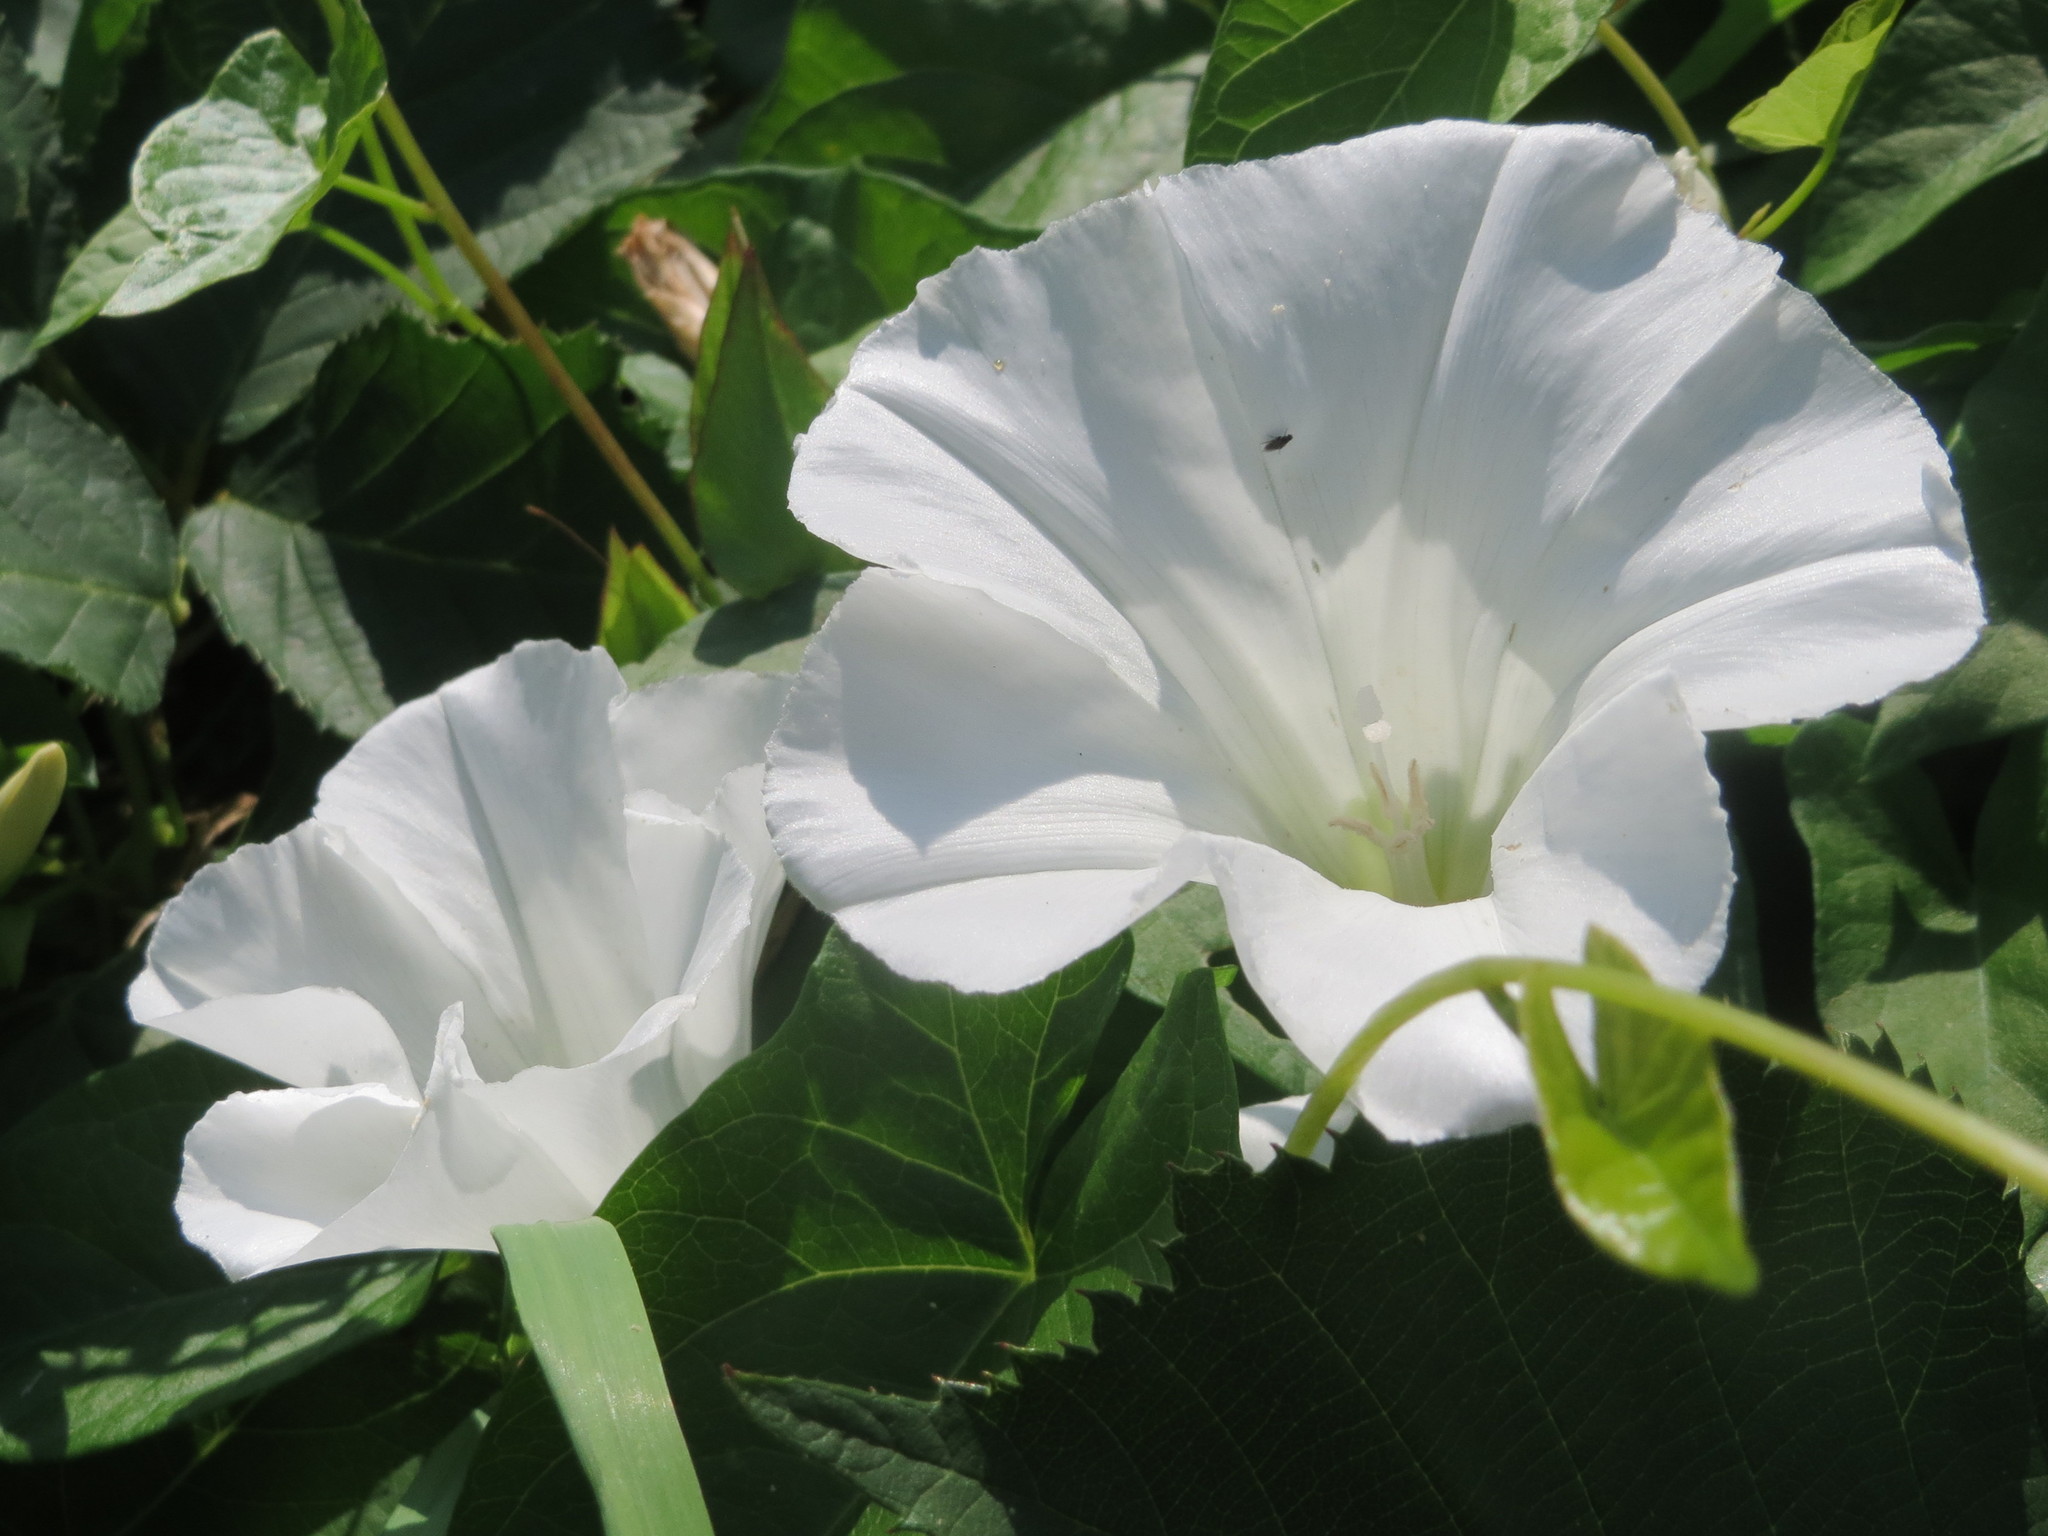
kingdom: Plantae
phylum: Tracheophyta
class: Magnoliopsida
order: Solanales
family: Convolvulaceae
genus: Calystegia
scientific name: Calystegia sepium
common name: Hedge bindweed
